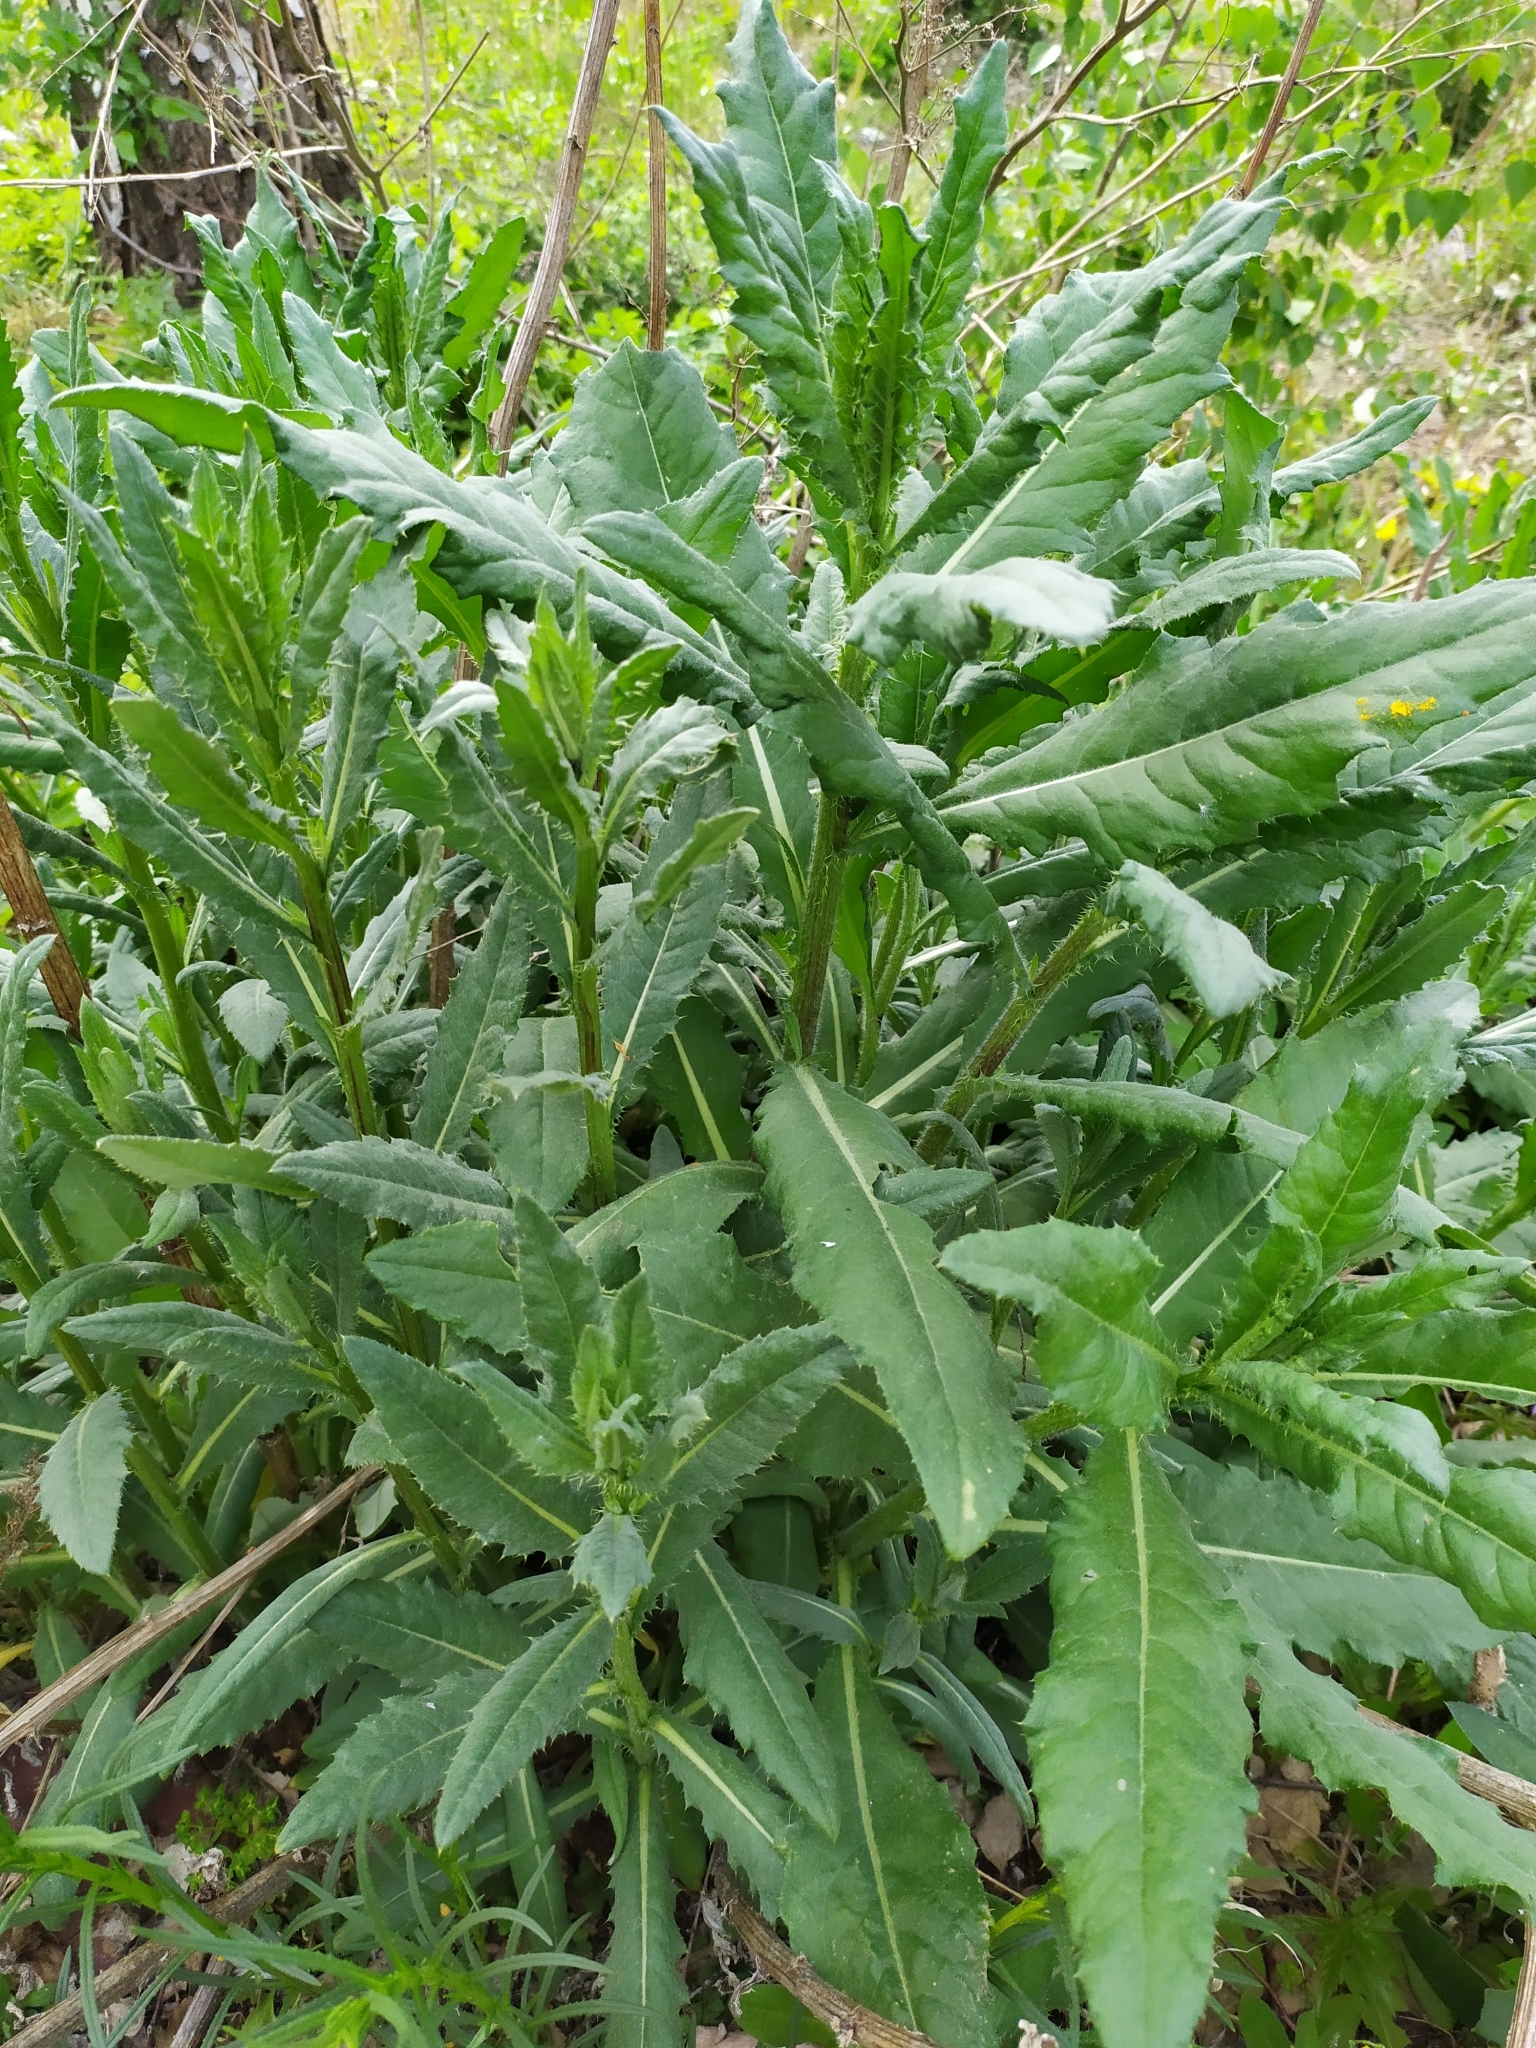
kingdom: Plantae
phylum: Tracheophyta
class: Magnoliopsida
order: Asterales
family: Asteraceae
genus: Cirsium
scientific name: Cirsium arvense
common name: Creeping thistle
